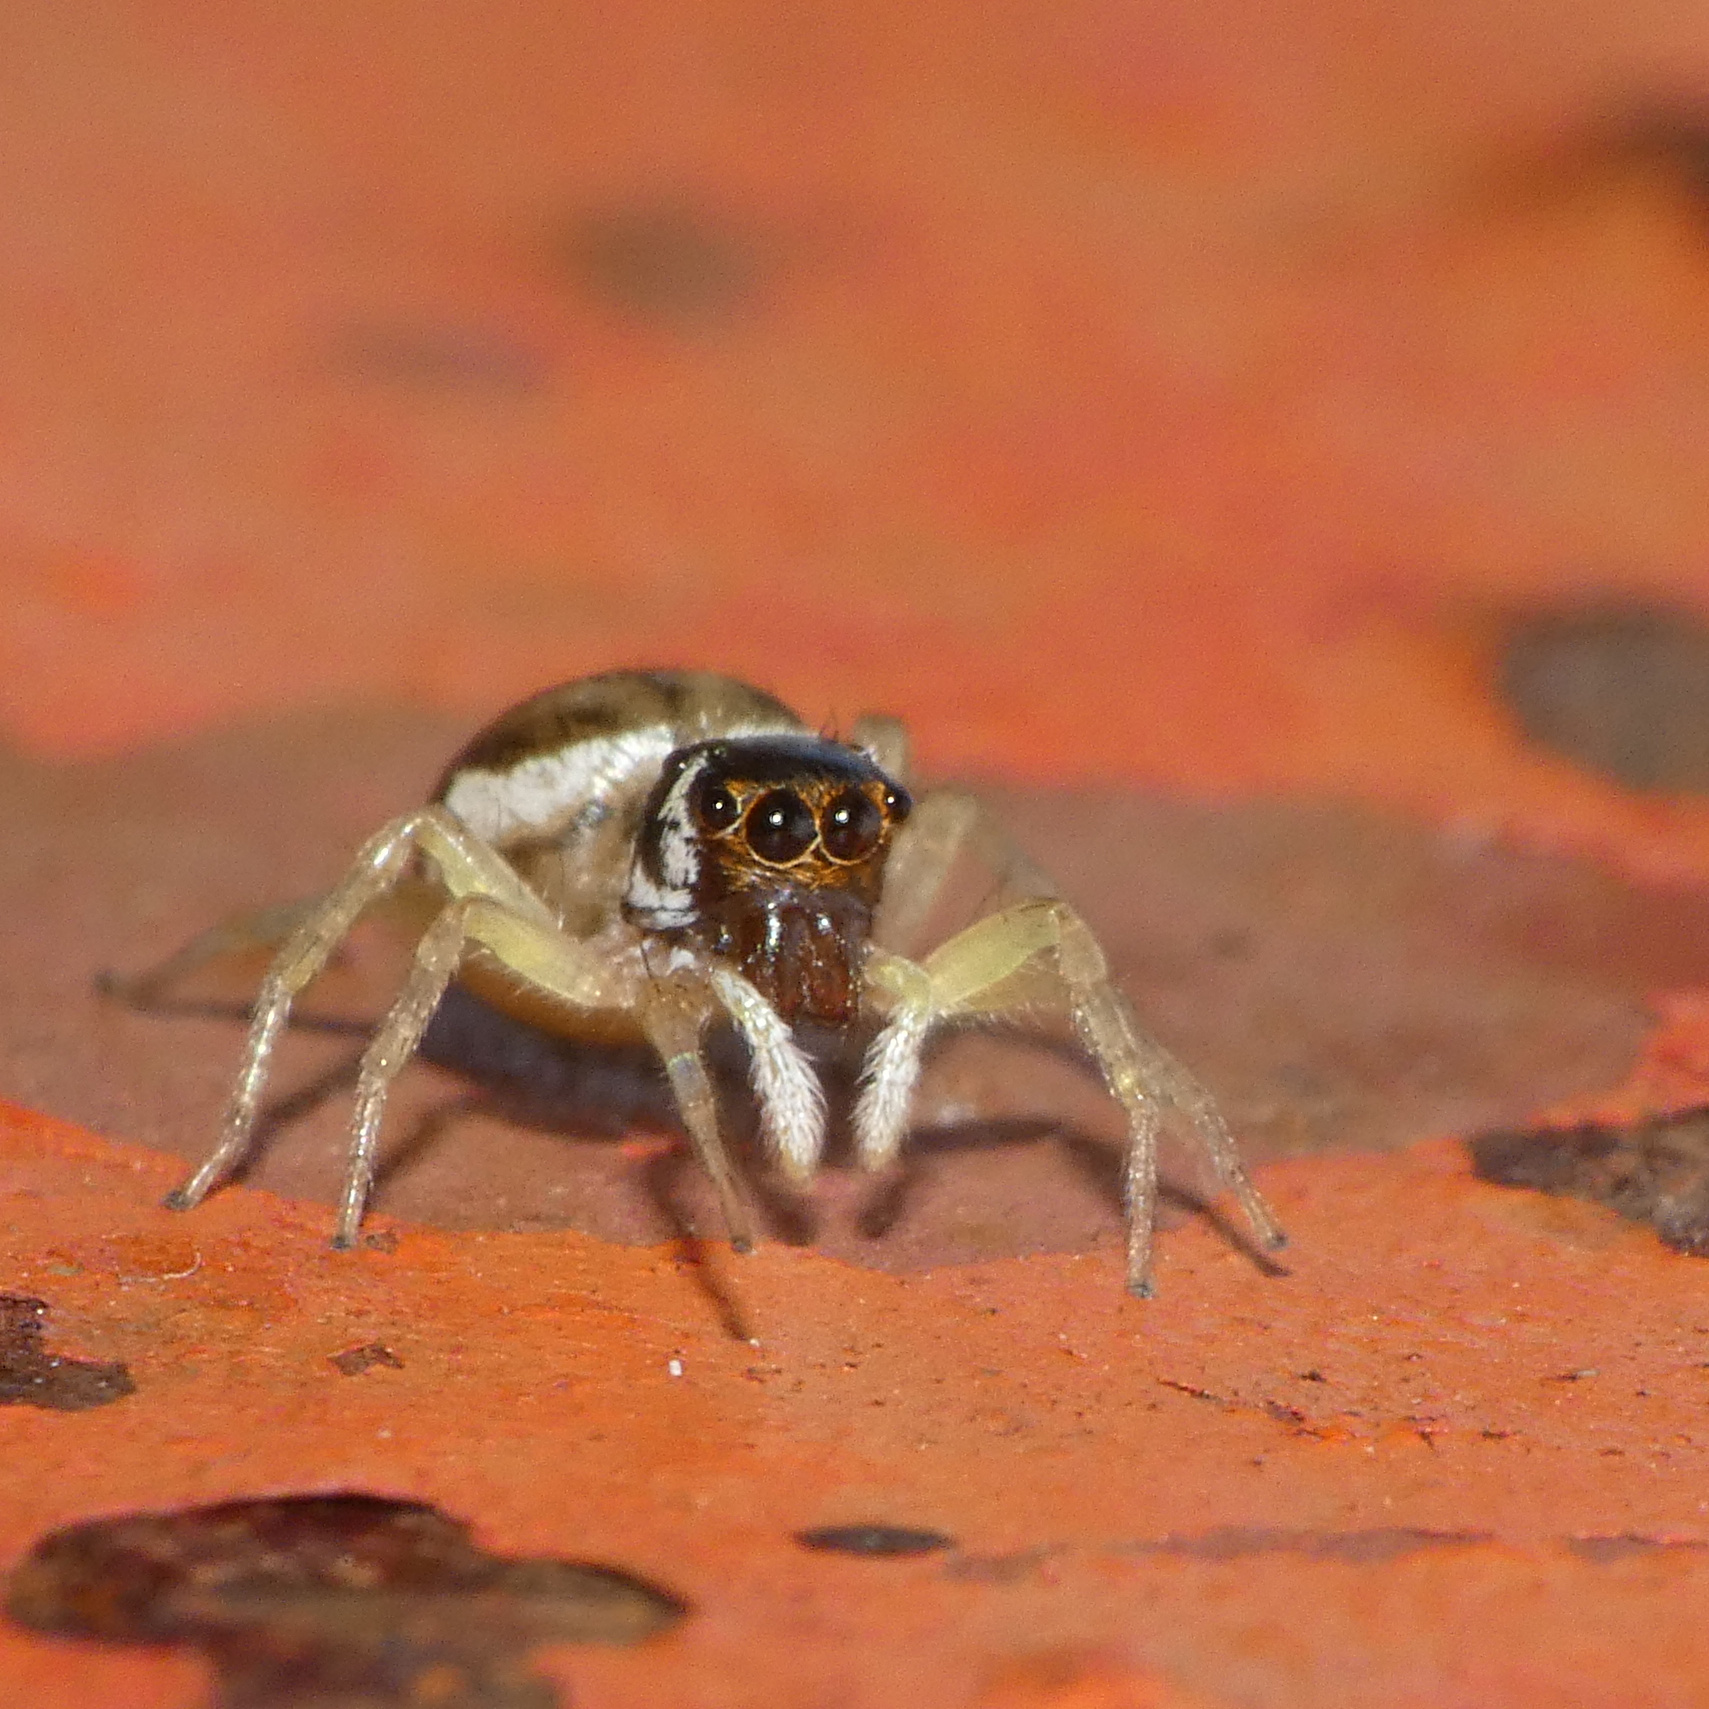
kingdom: Animalia
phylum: Arthropoda
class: Arachnida
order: Araneae
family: Salticidae
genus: Phintella
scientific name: Phintella aequipes
